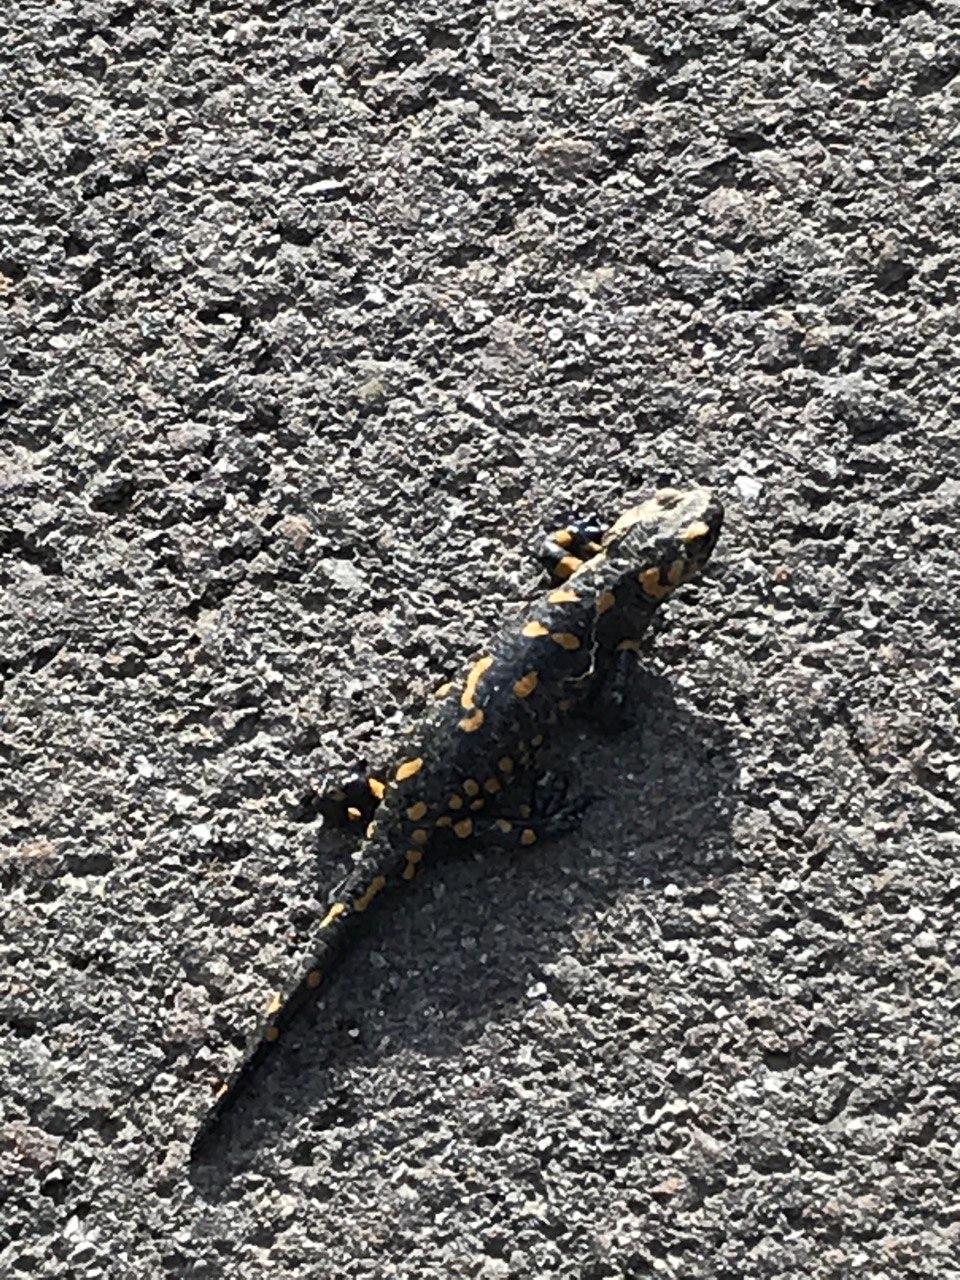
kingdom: Animalia
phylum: Chordata
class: Amphibia
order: Caudata
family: Salamandridae
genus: Salamandra
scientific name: Salamandra salamandra
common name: Fire salamander
